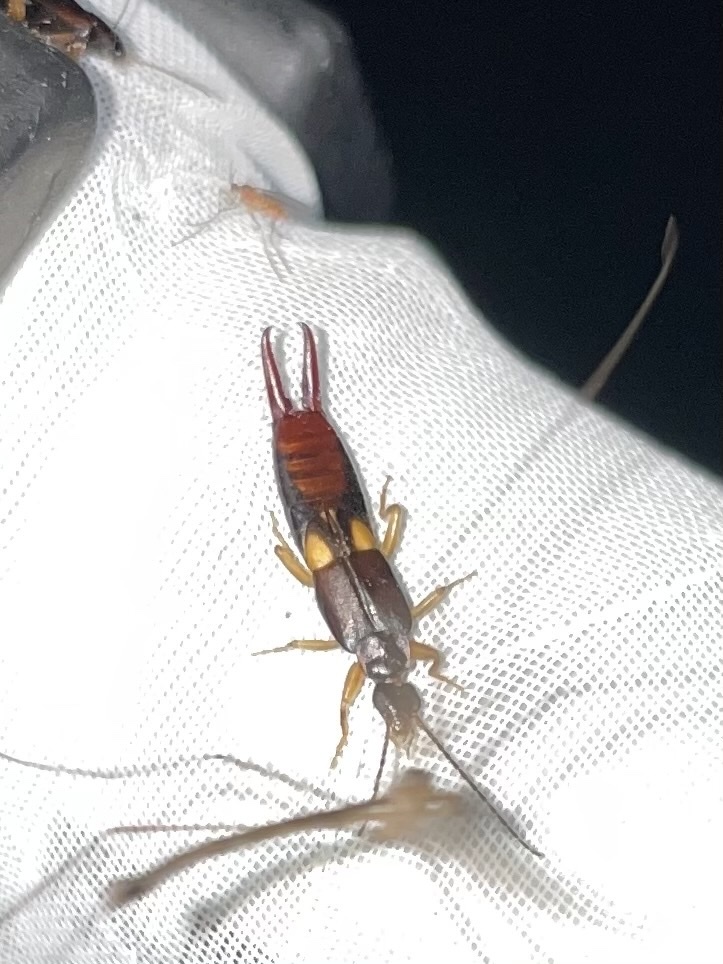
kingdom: Animalia
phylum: Arthropoda
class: Insecta
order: Dermaptera
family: Spongiphoridae
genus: Vostox
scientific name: Vostox brunneipennis
